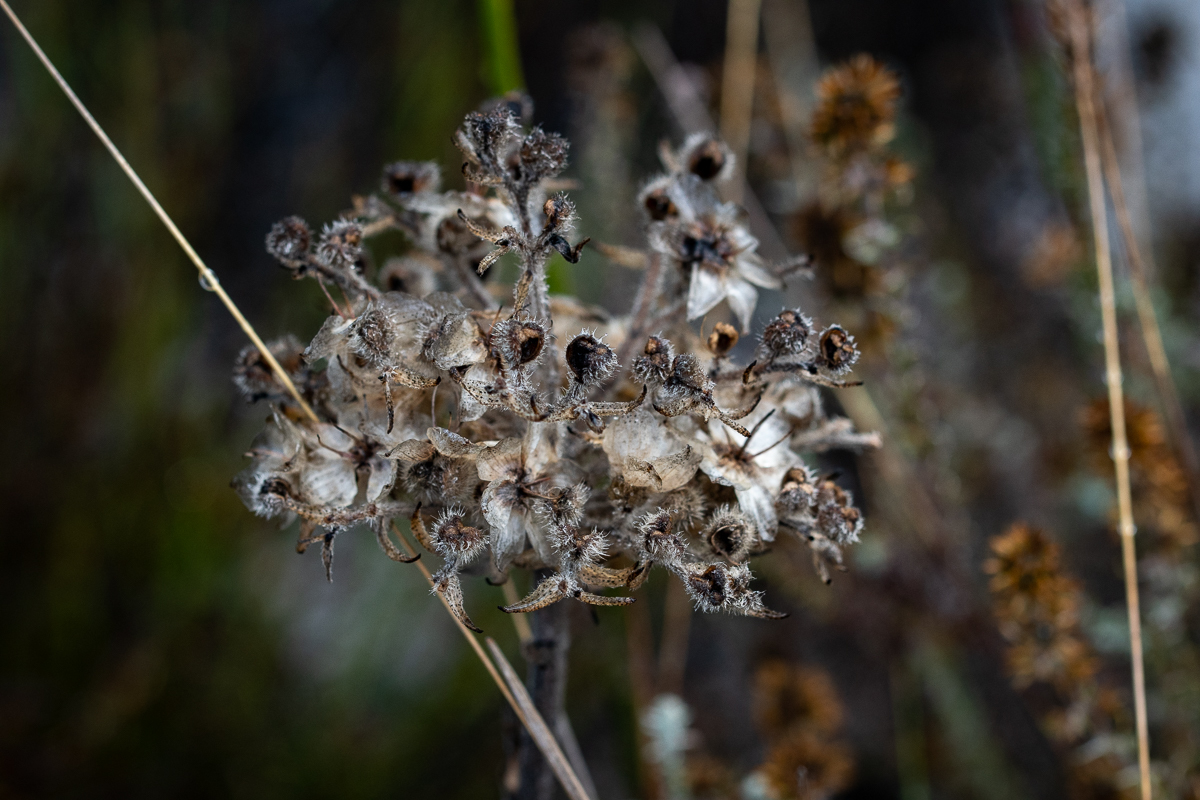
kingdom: Plantae
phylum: Tracheophyta
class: Liliopsida
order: Commelinales
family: Haemodoraceae
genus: Dilatris
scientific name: Dilatris pillansii
